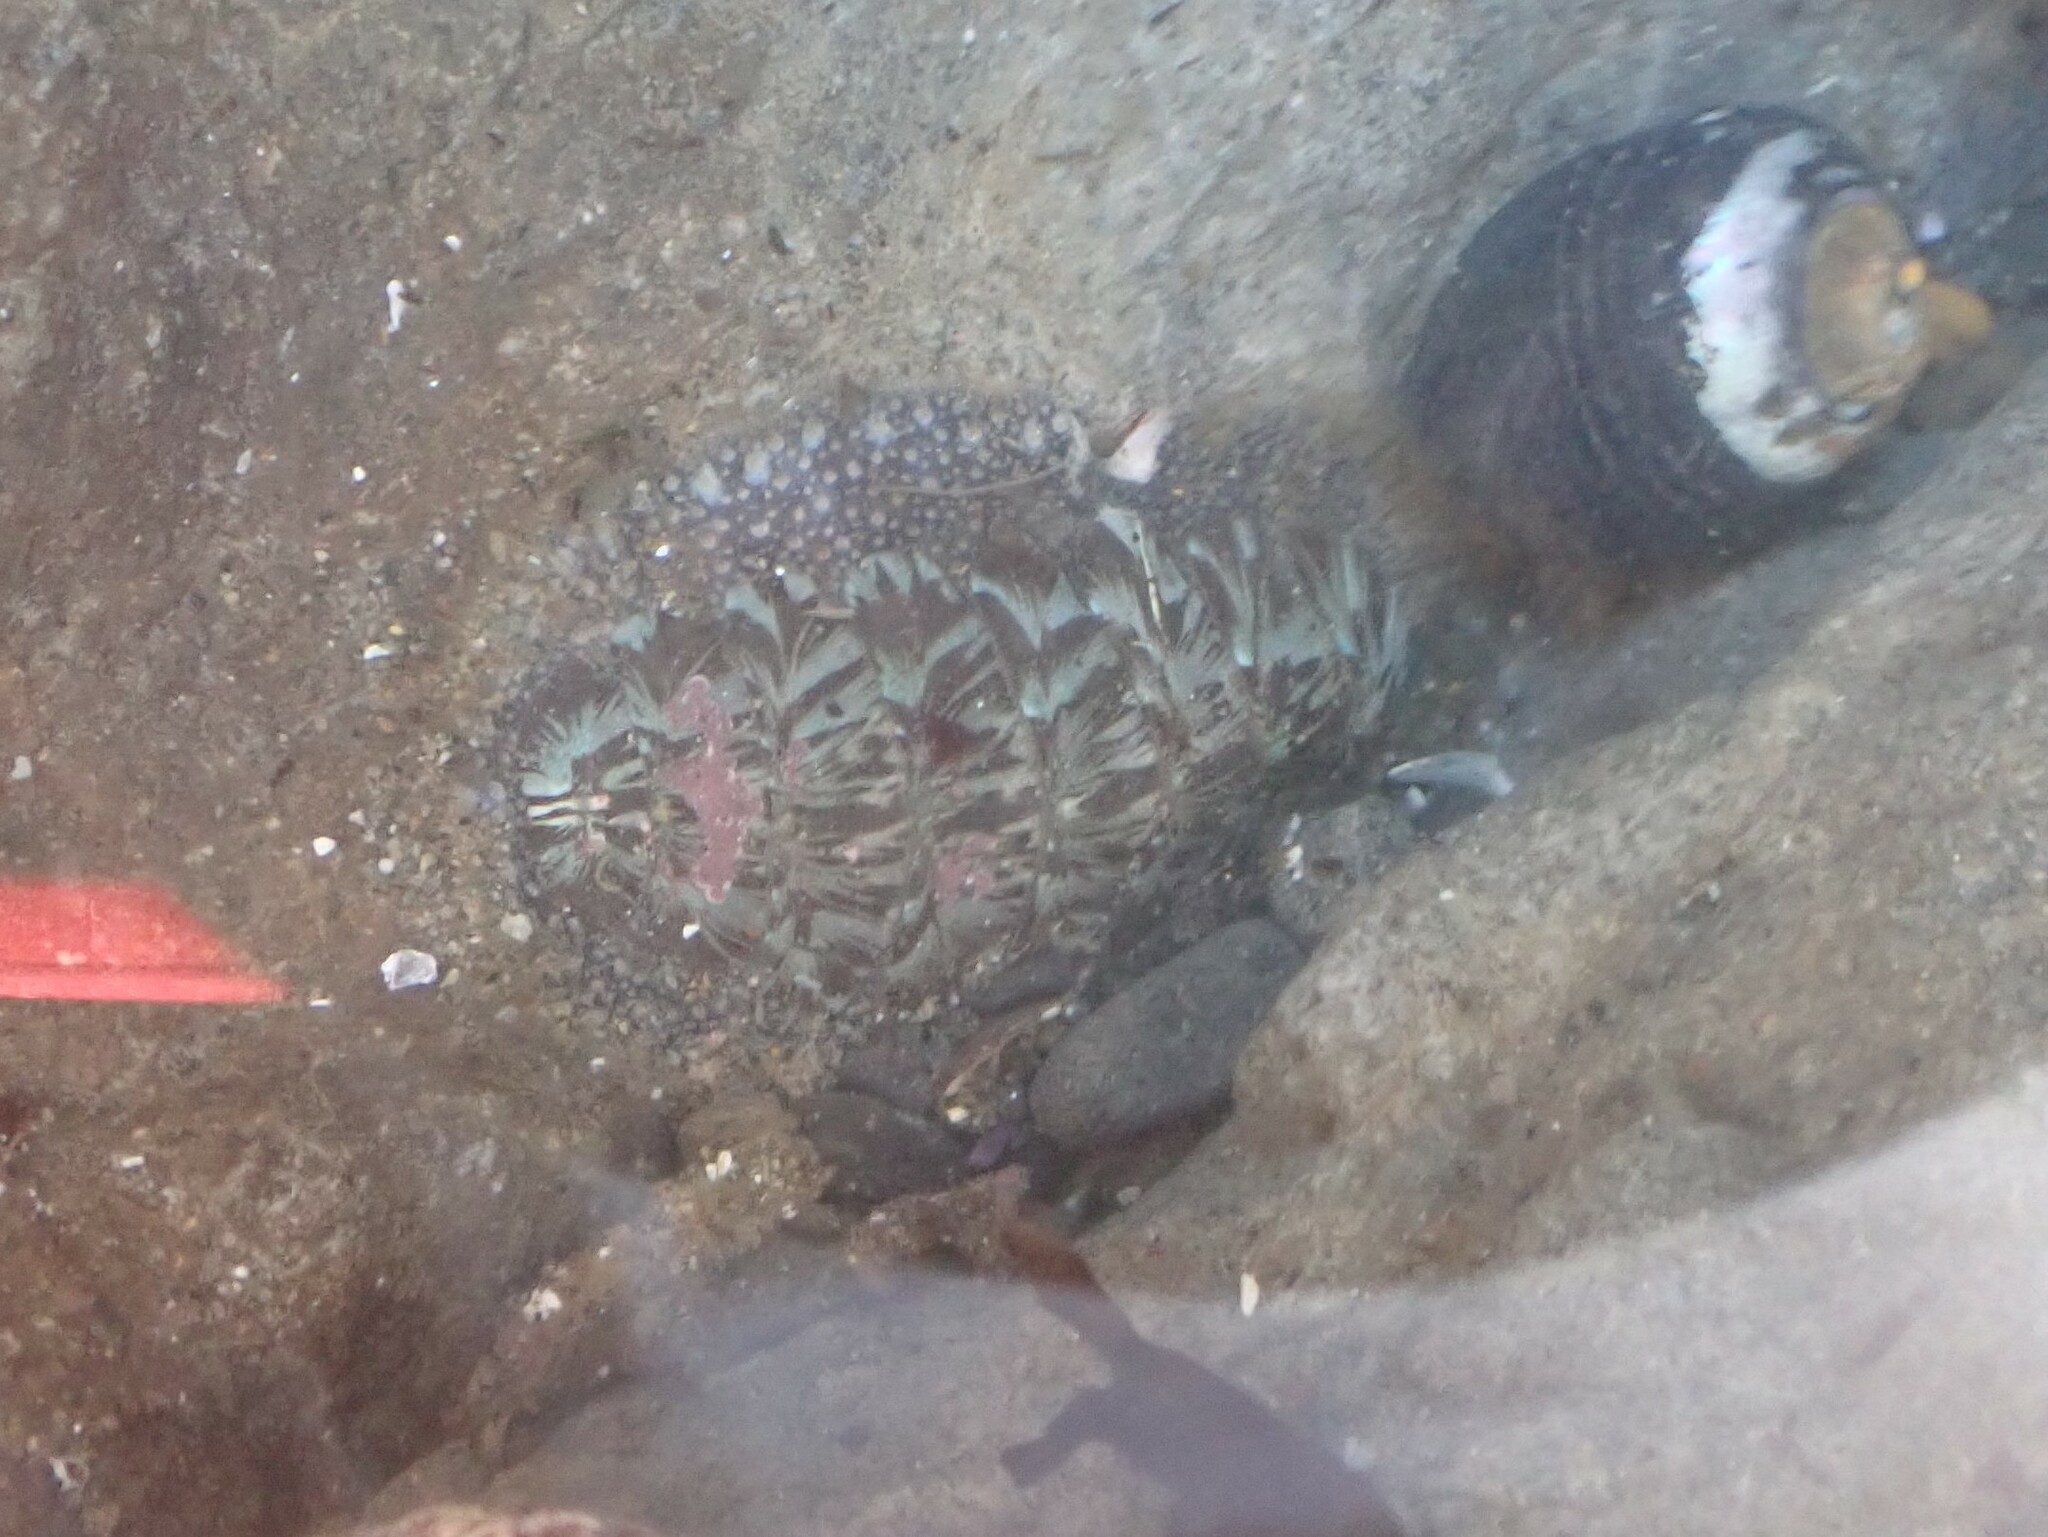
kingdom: Animalia
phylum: Mollusca
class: Polyplacophora
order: Chitonida
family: Mopaliidae
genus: Mopalia
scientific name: Mopalia lignosa
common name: Woody chiton
